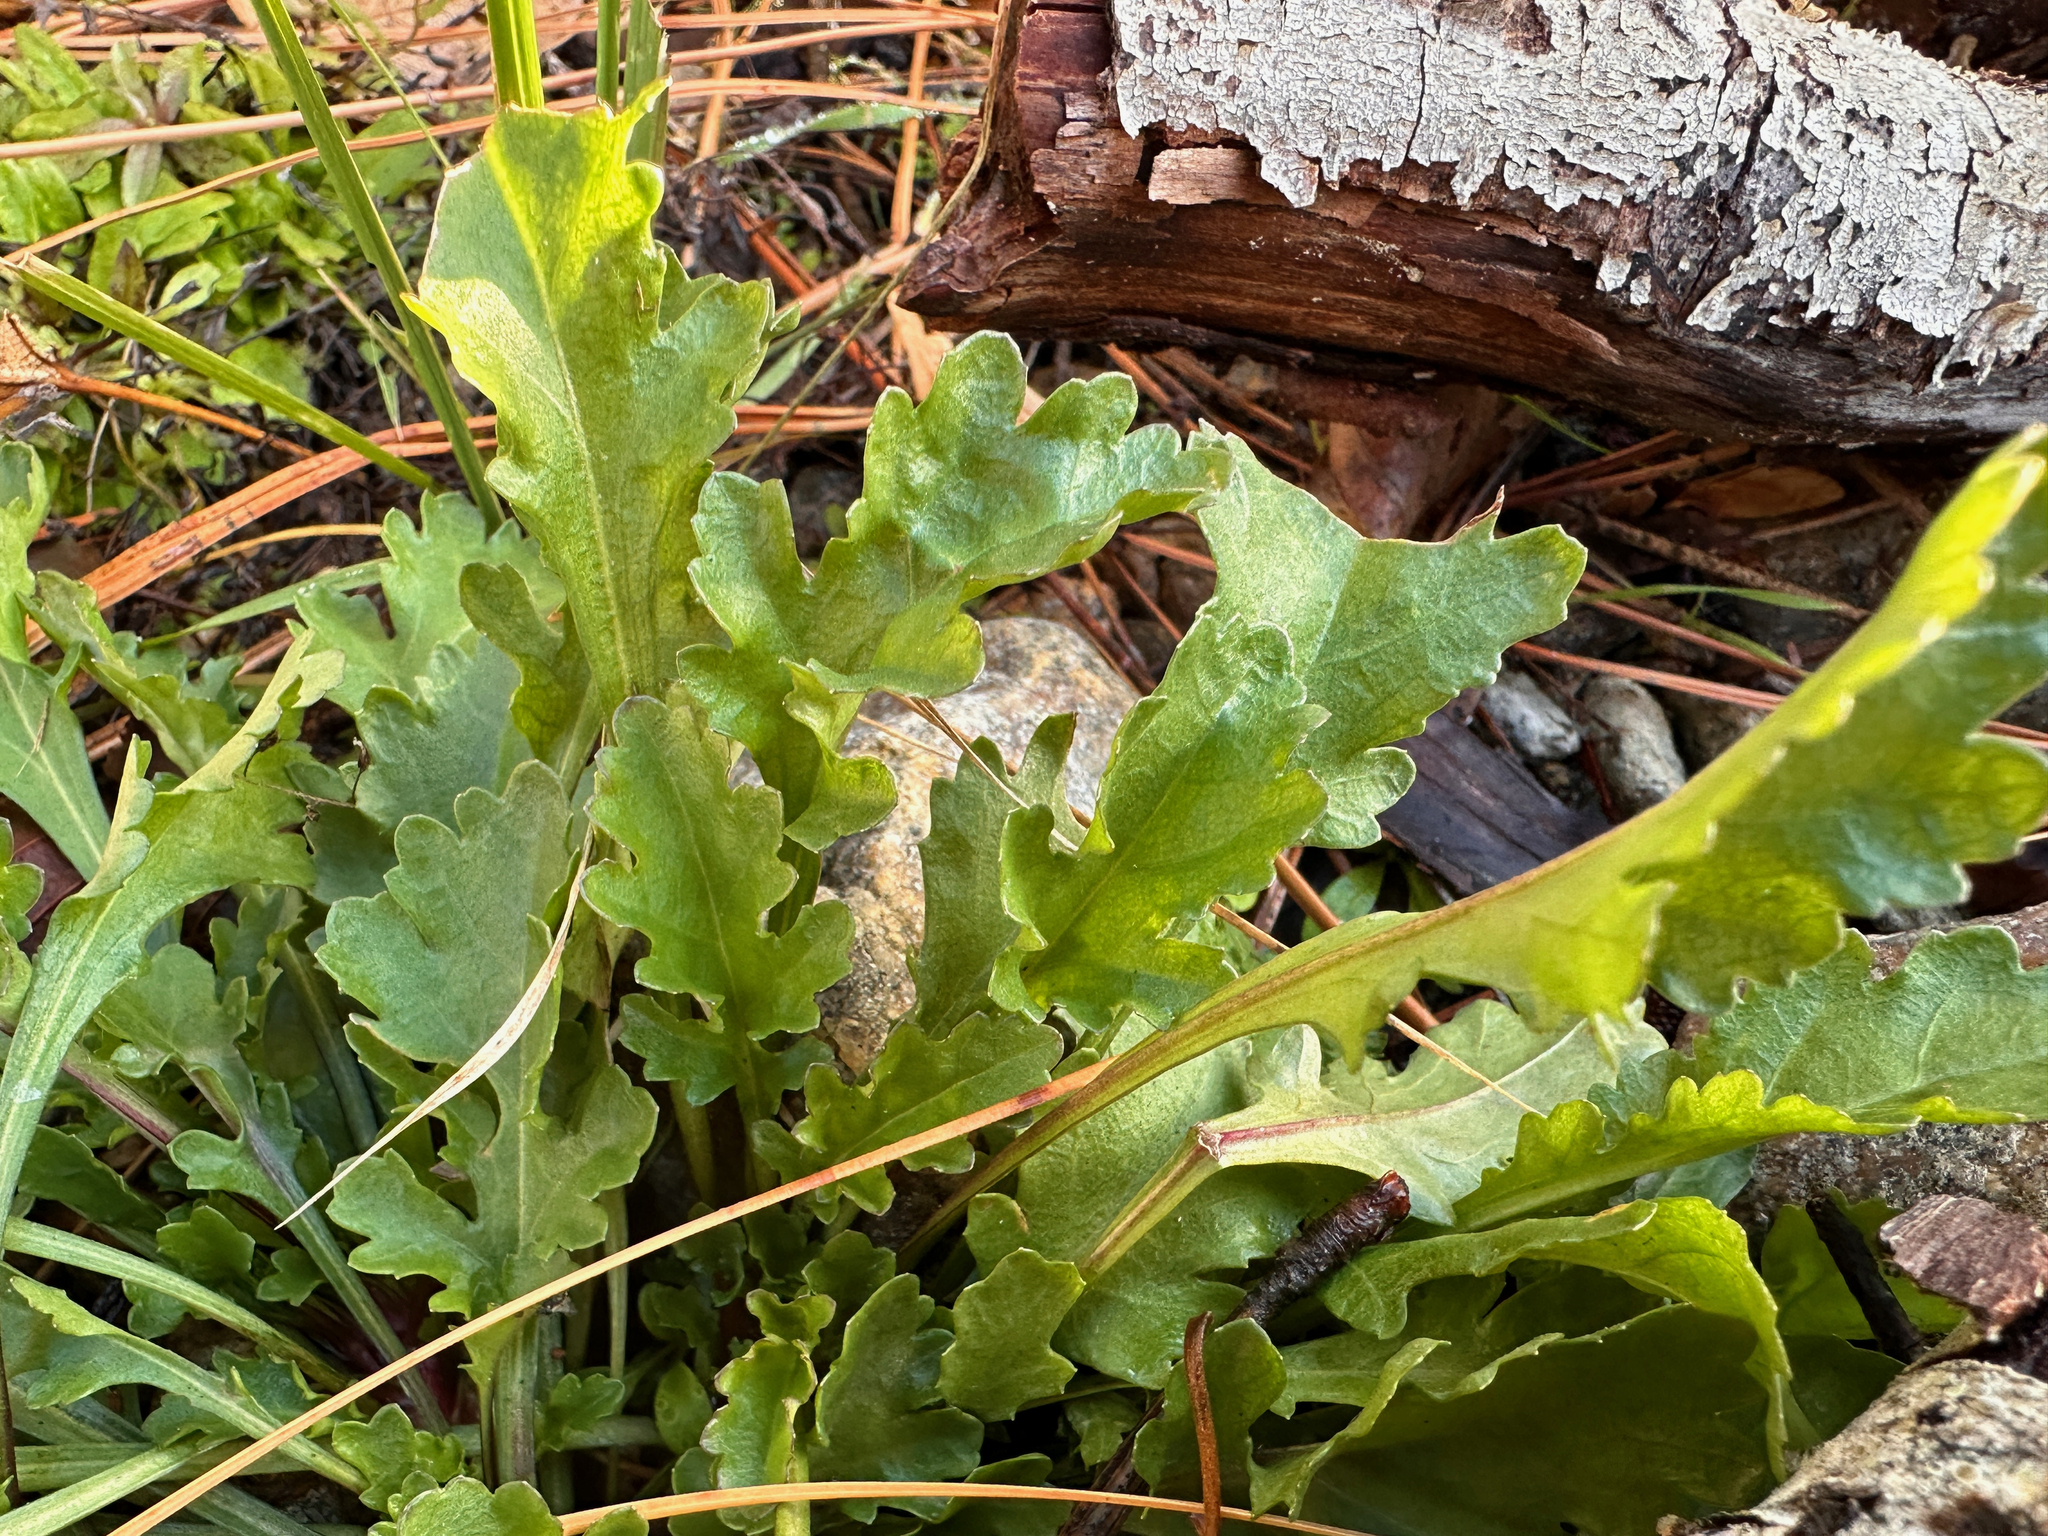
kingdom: Plantae
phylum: Tracheophyta
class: Magnoliopsida
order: Asterales
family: Asteraceae
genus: Leucanthemum
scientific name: Leucanthemum vulgare
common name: Oxeye daisy
